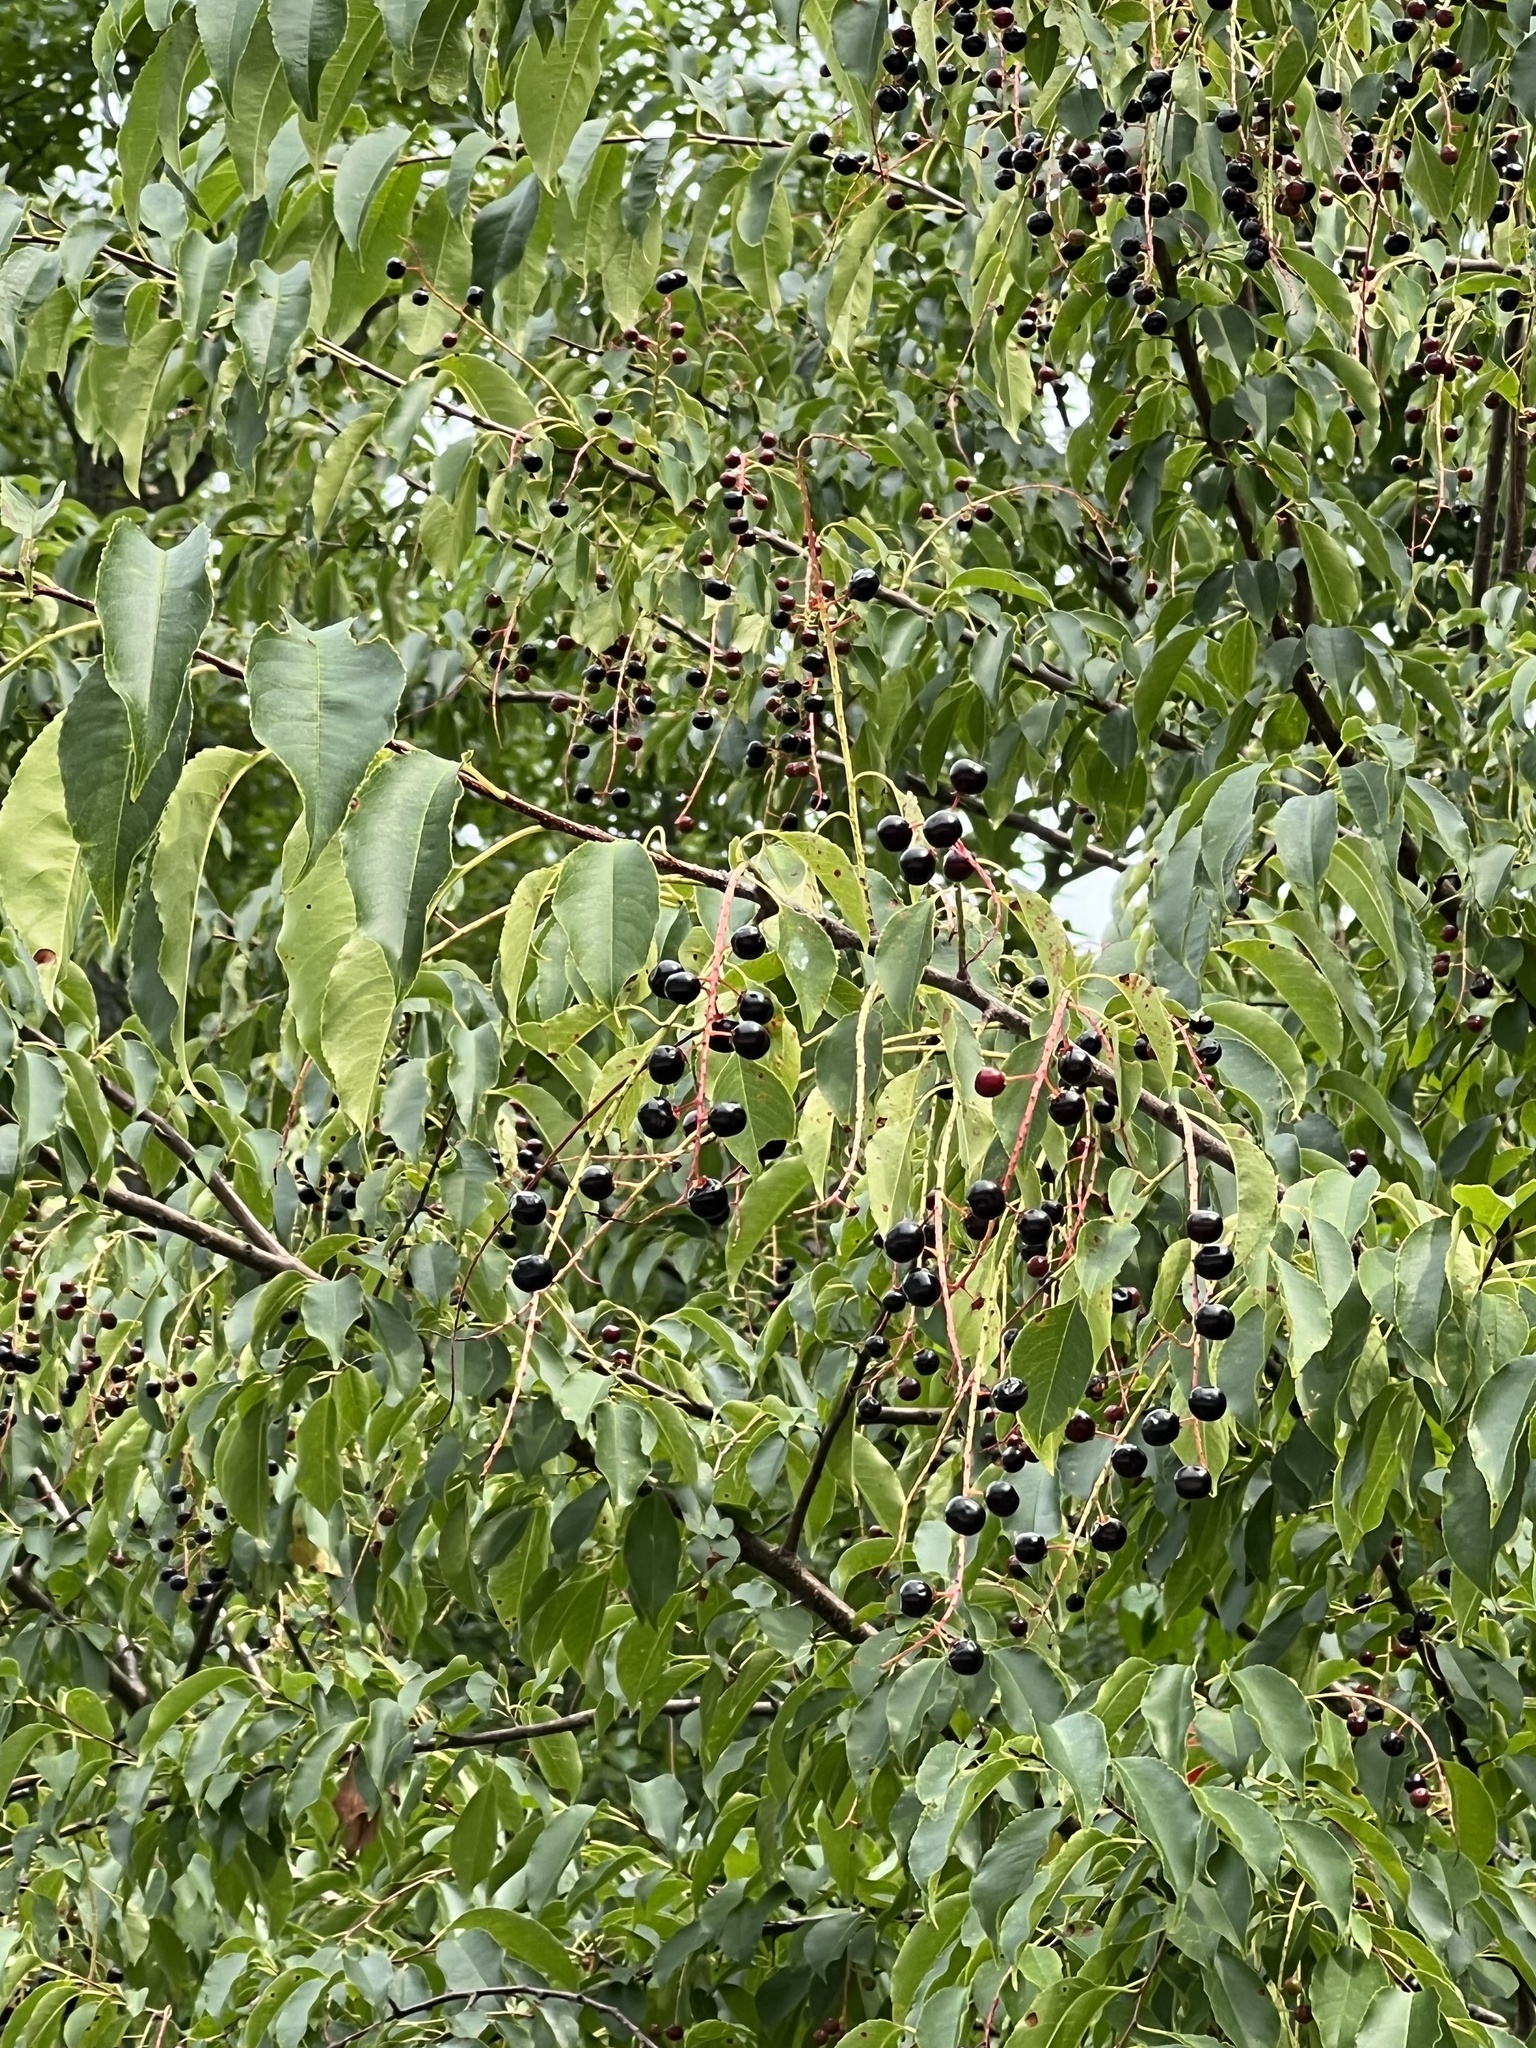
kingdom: Plantae
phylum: Tracheophyta
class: Magnoliopsida
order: Rosales
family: Rosaceae
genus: Prunus
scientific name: Prunus serotina
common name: Black cherry
